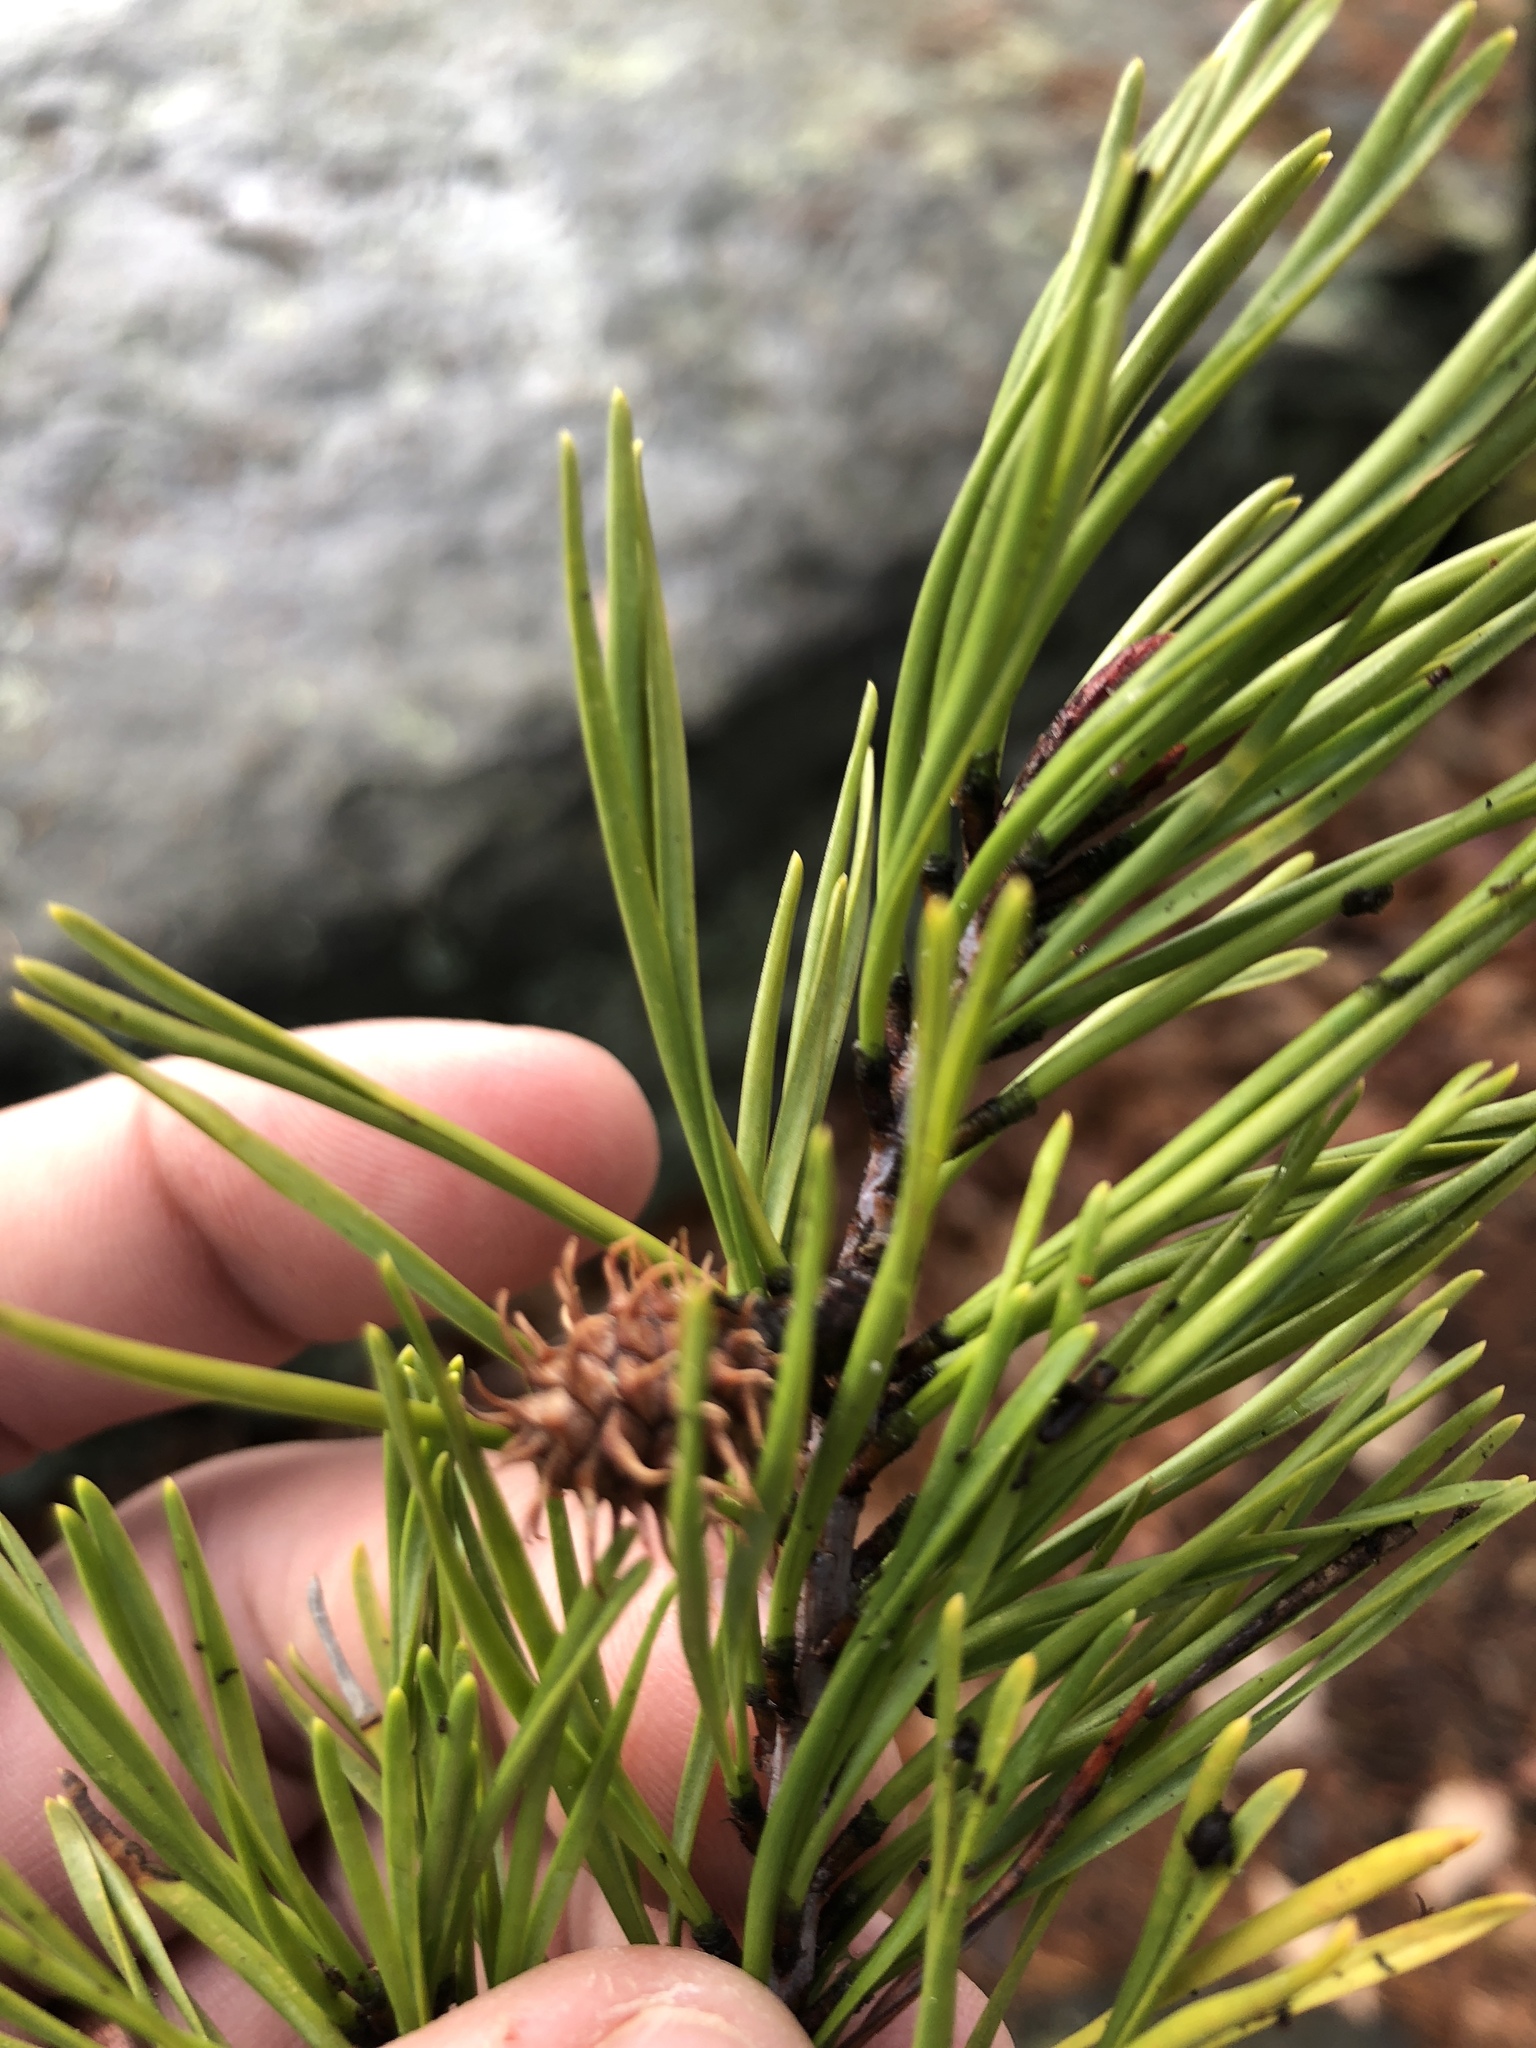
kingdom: Plantae
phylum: Tracheophyta
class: Pinopsida
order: Pinales
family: Pinaceae
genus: Pinus
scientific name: Pinus virginiana
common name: Scrub pine
